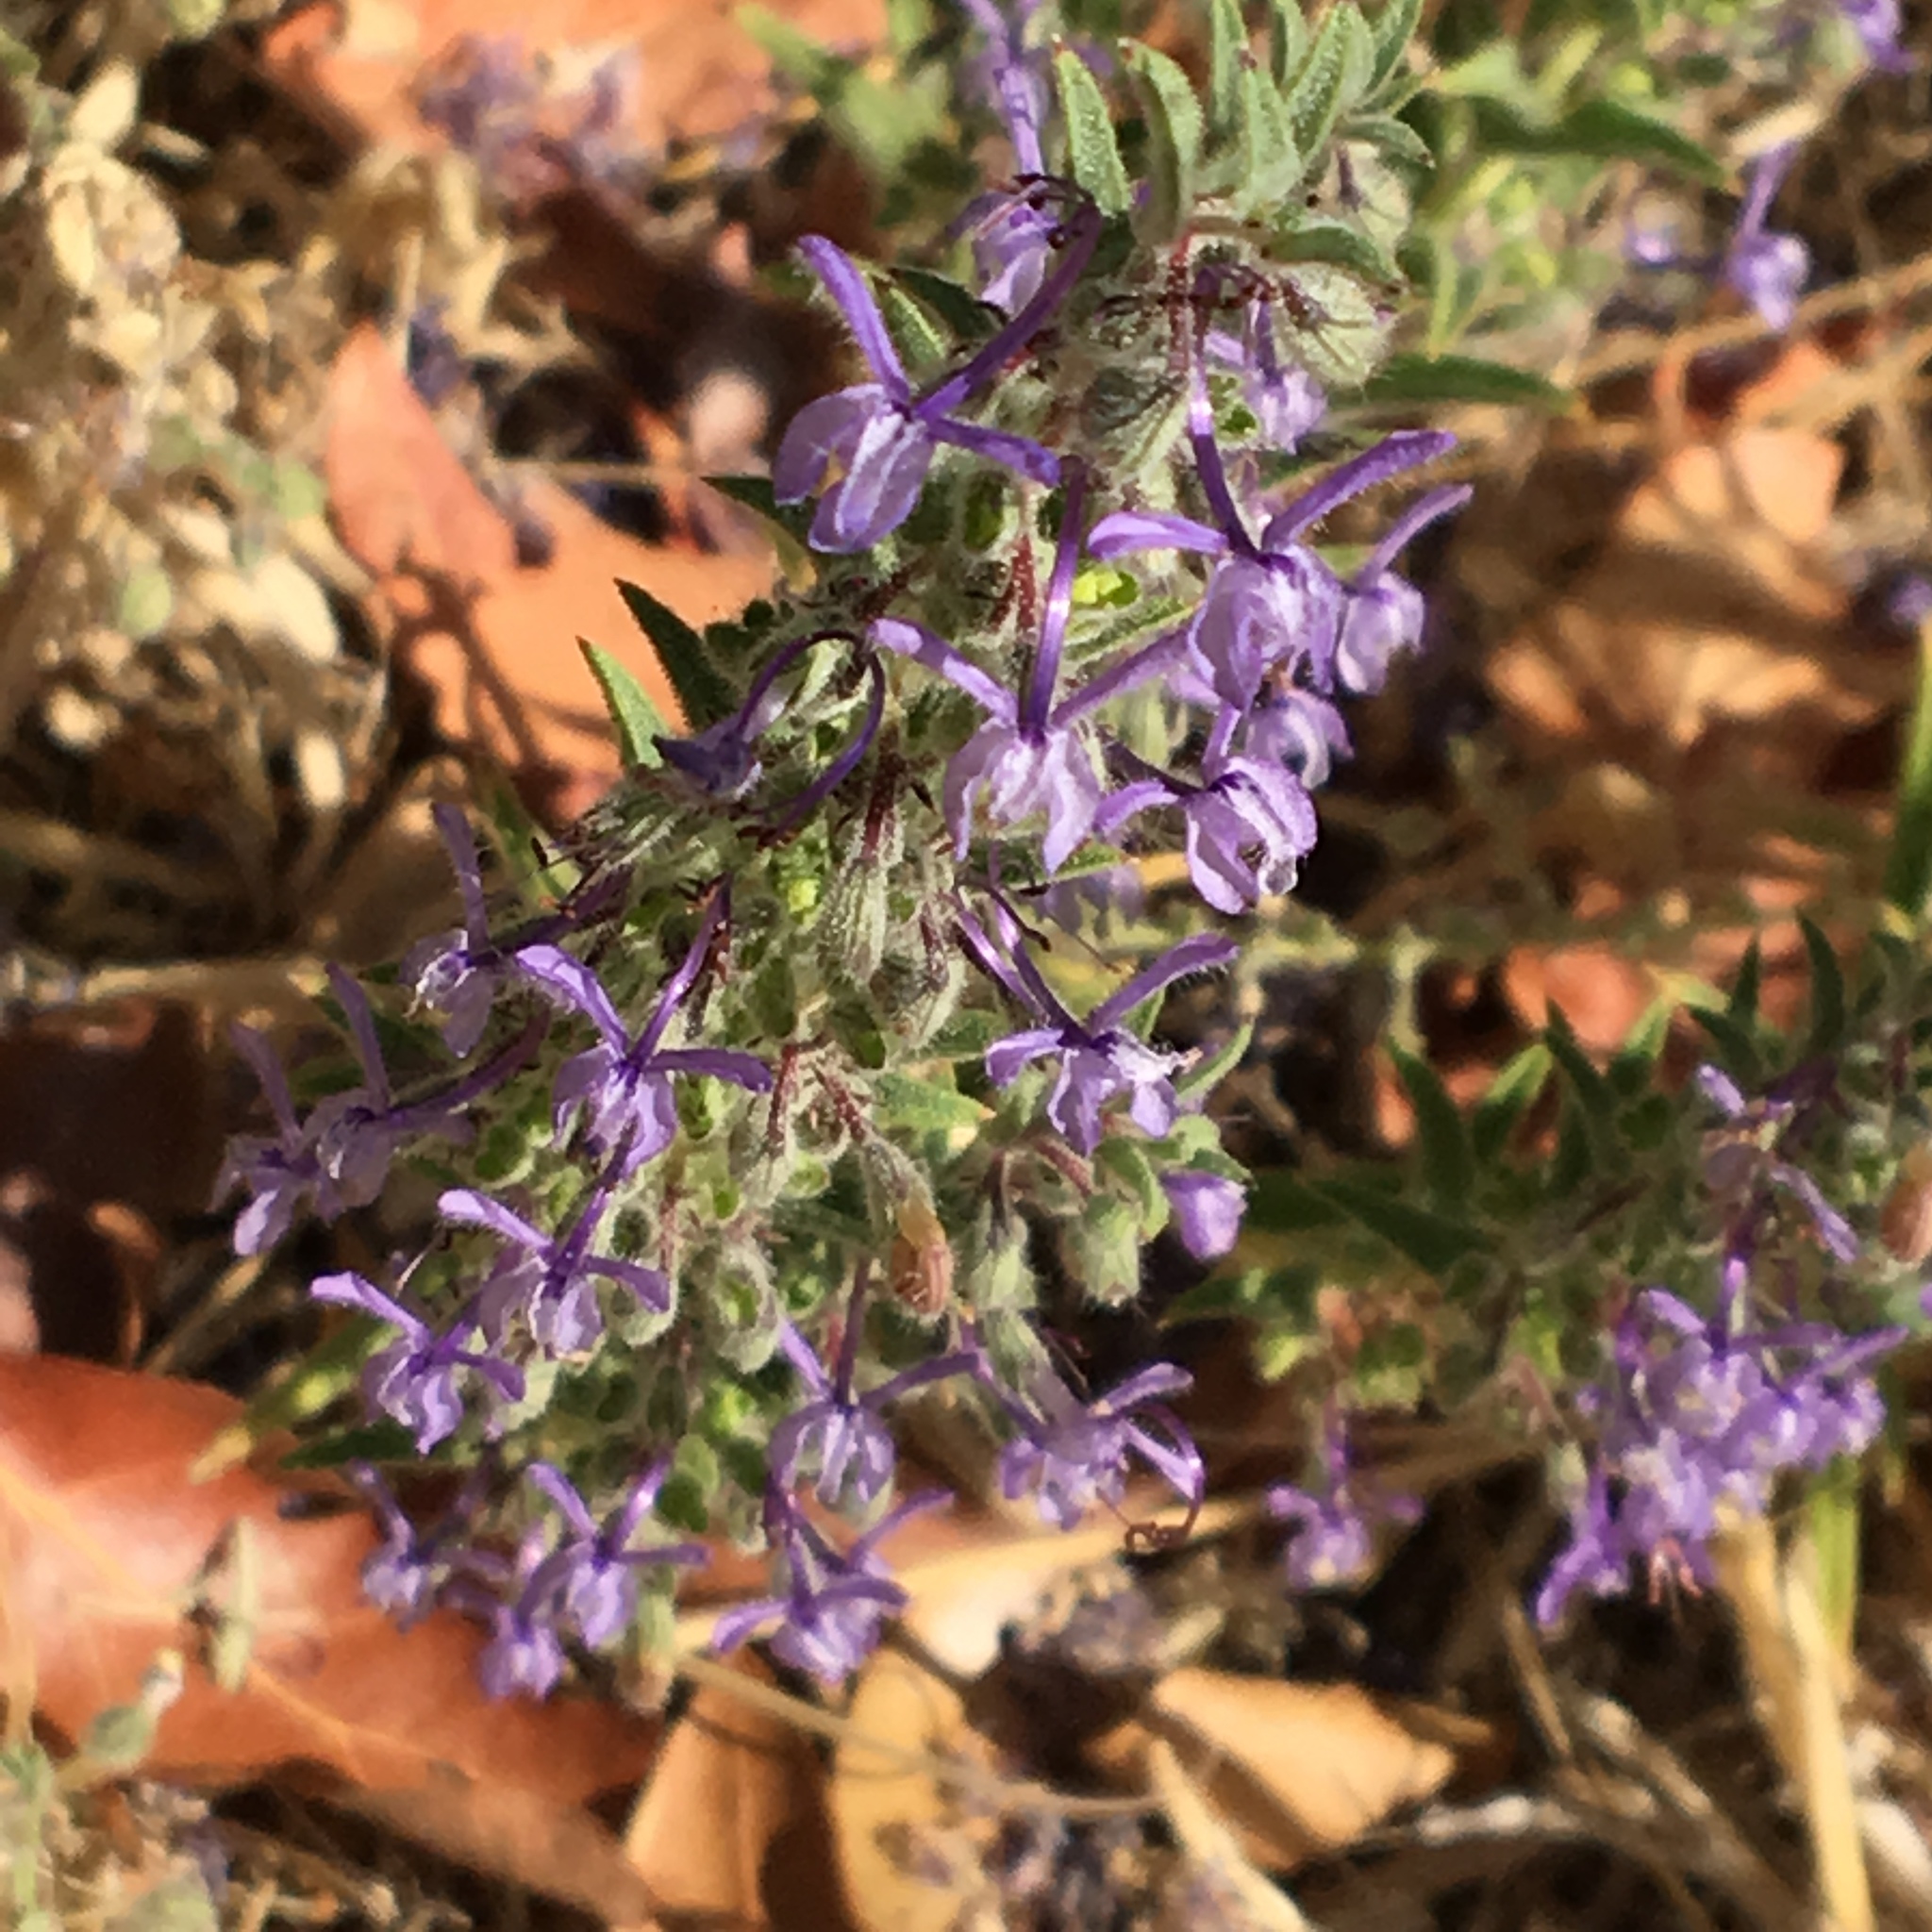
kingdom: Plantae
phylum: Tracheophyta
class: Magnoliopsida
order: Lamiales
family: Lamiaceae
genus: Trichostema
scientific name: Trichostema lanceolatum
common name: Vinegar-weed
